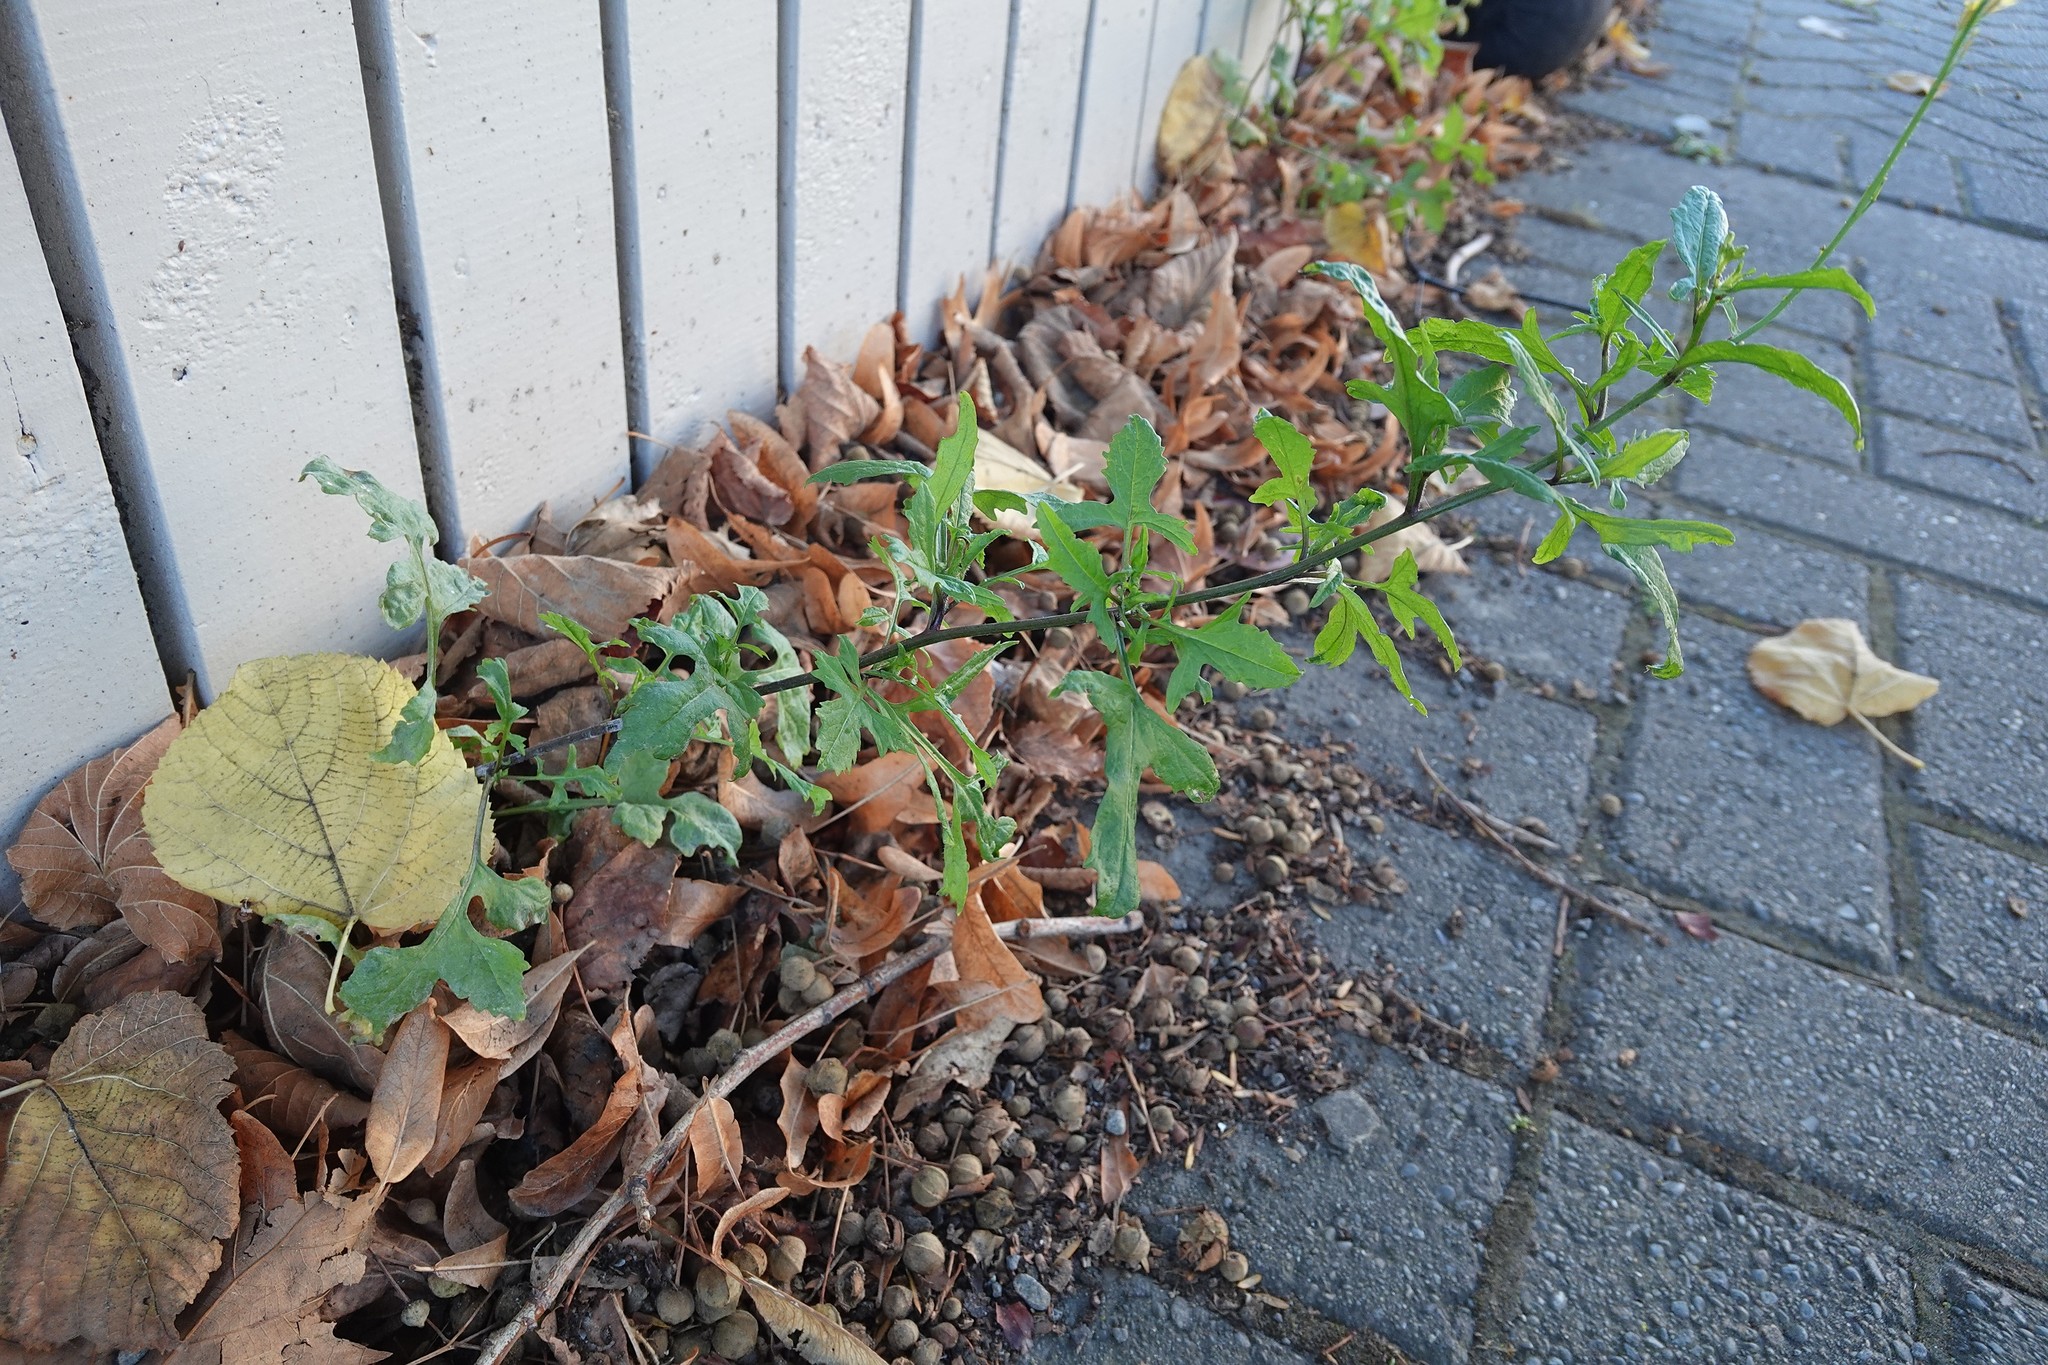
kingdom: Plantae
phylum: Tracheophyta
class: Magnoliopsida
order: Brassicales
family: Brassicaceae
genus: Sisymbrium
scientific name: Sisymbrium officinale
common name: Hedge mustard
